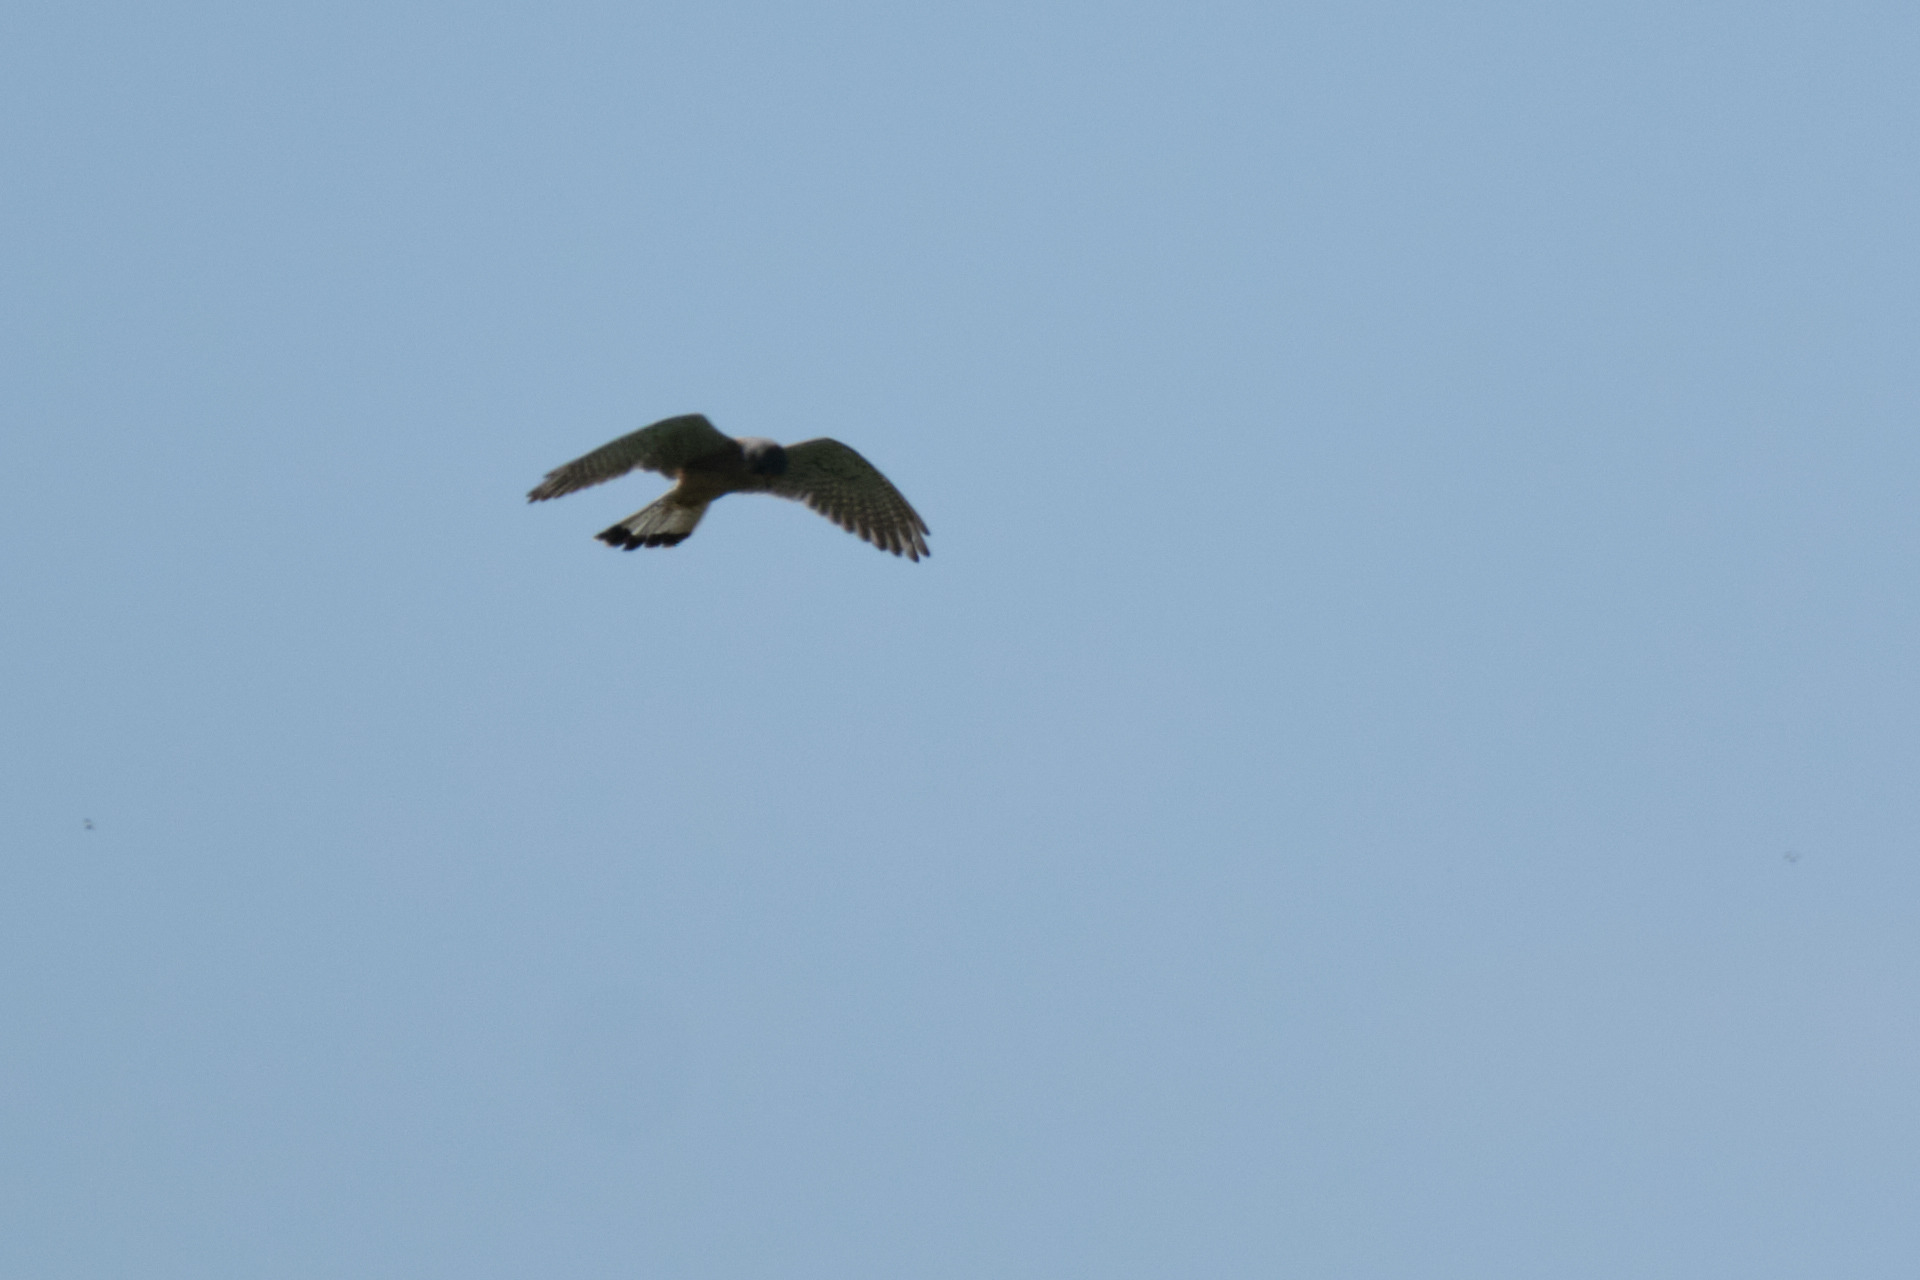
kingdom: Animalia
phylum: Chordata
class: Aves
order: Falconiformes
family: Falconidae
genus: Falco
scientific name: Falco tinnunculus
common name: Common kestrel
